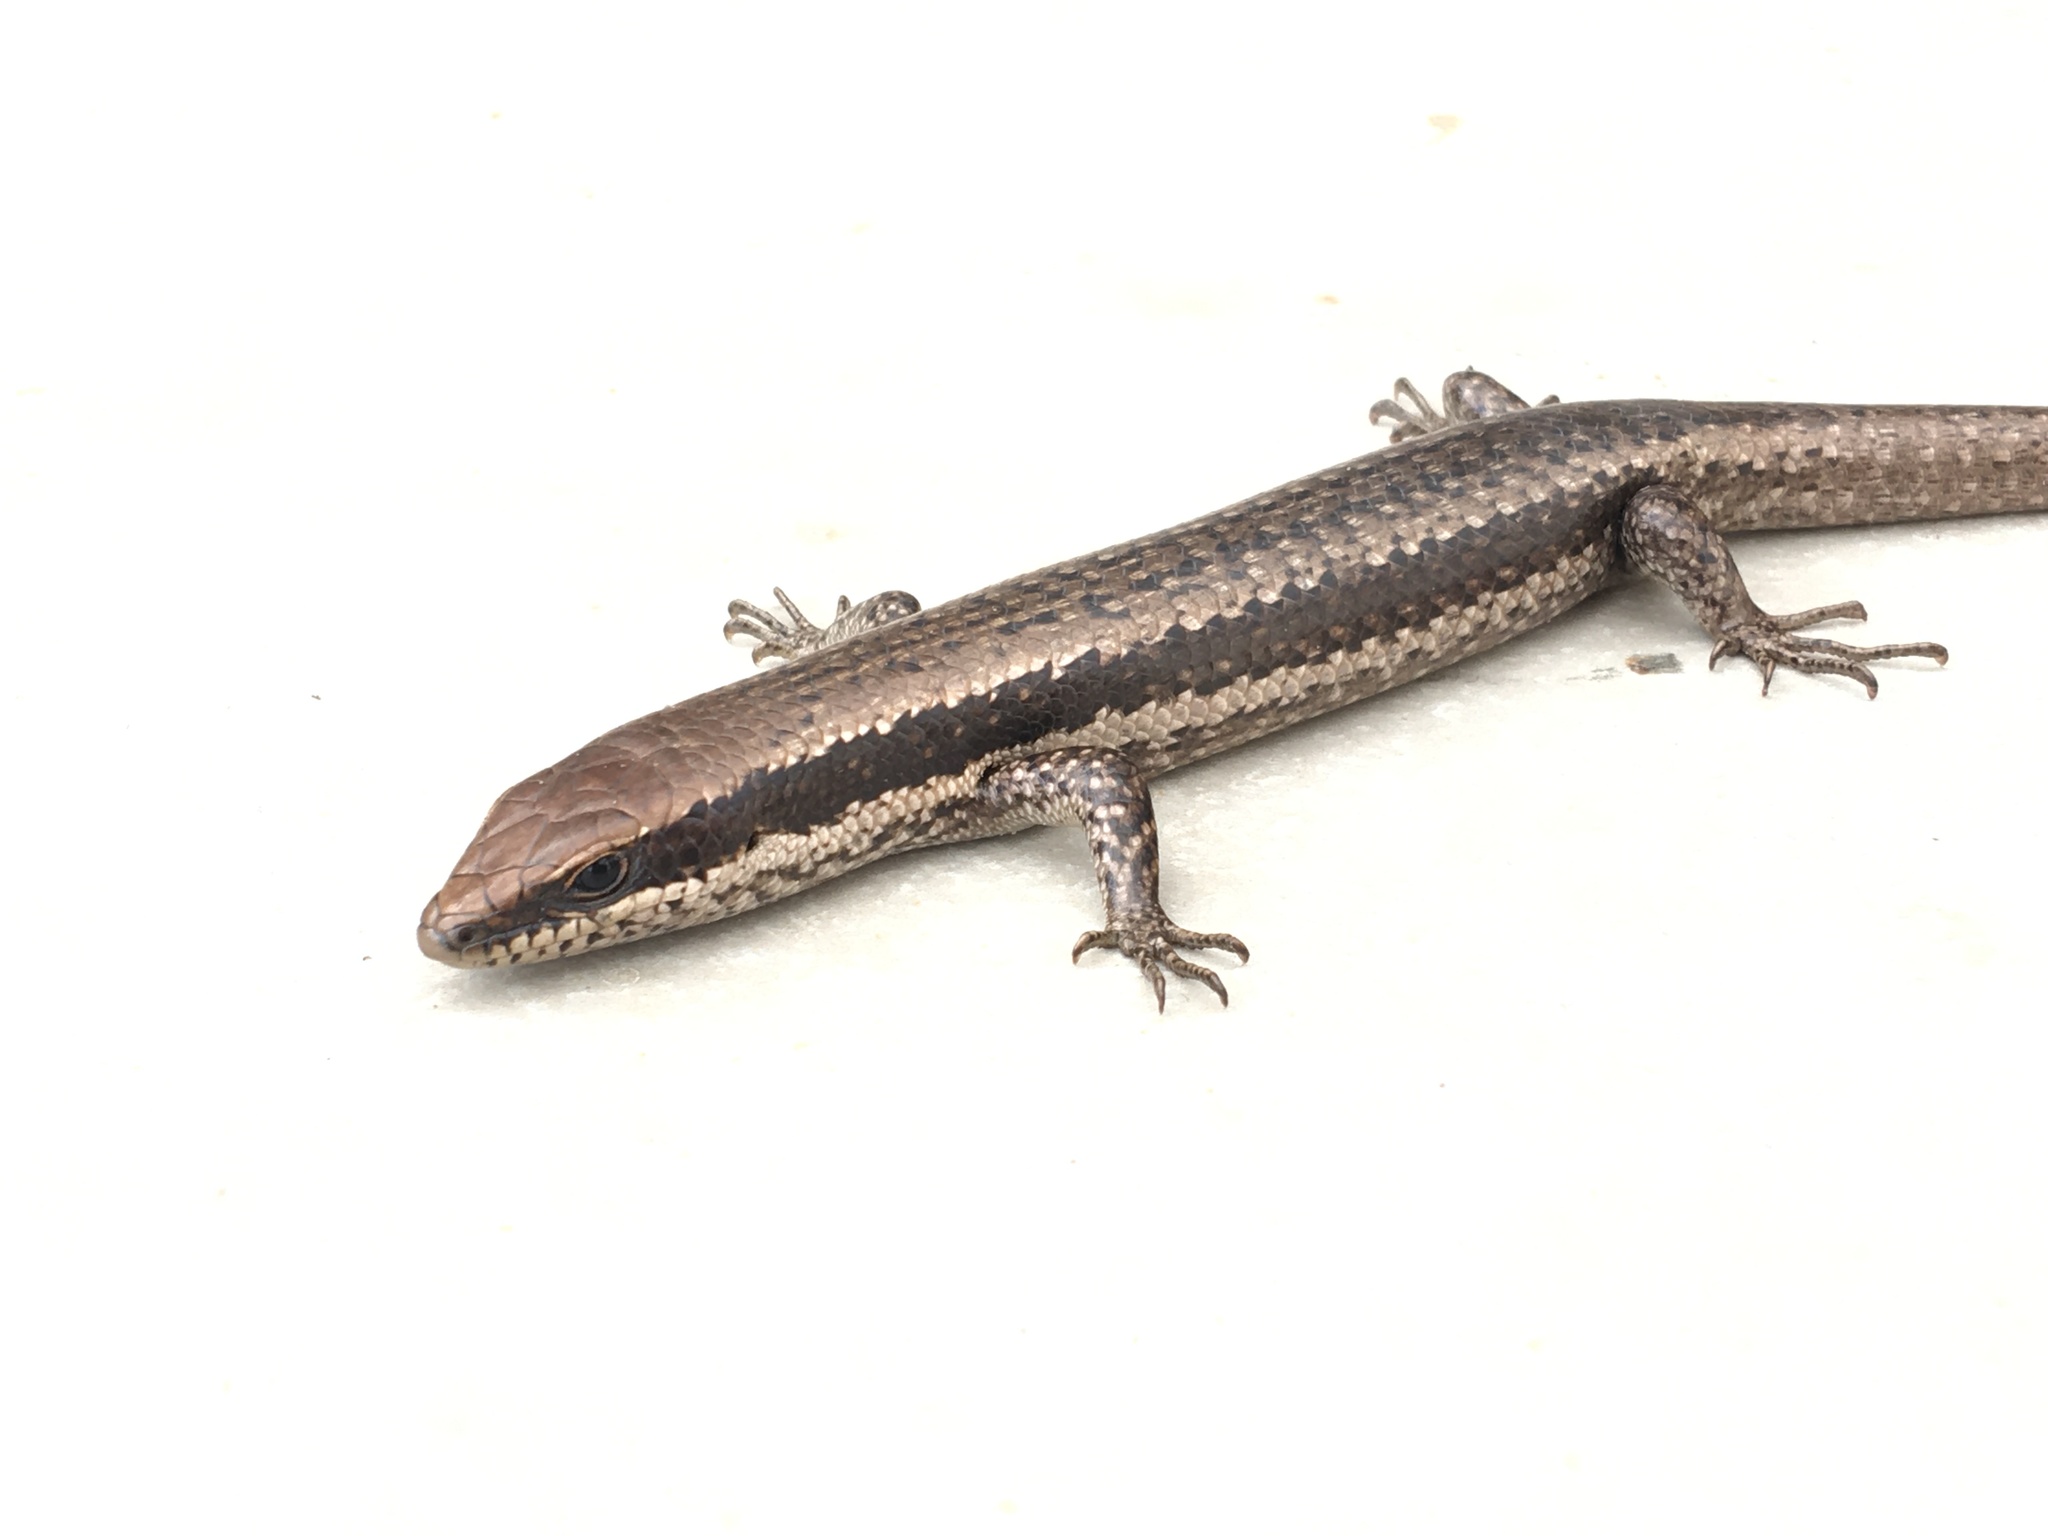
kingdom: Animalia
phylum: Chordata
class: Squamata
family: Scincidae
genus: Notomabuya
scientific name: Notomabuya frenata
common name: Cope's mabuya
